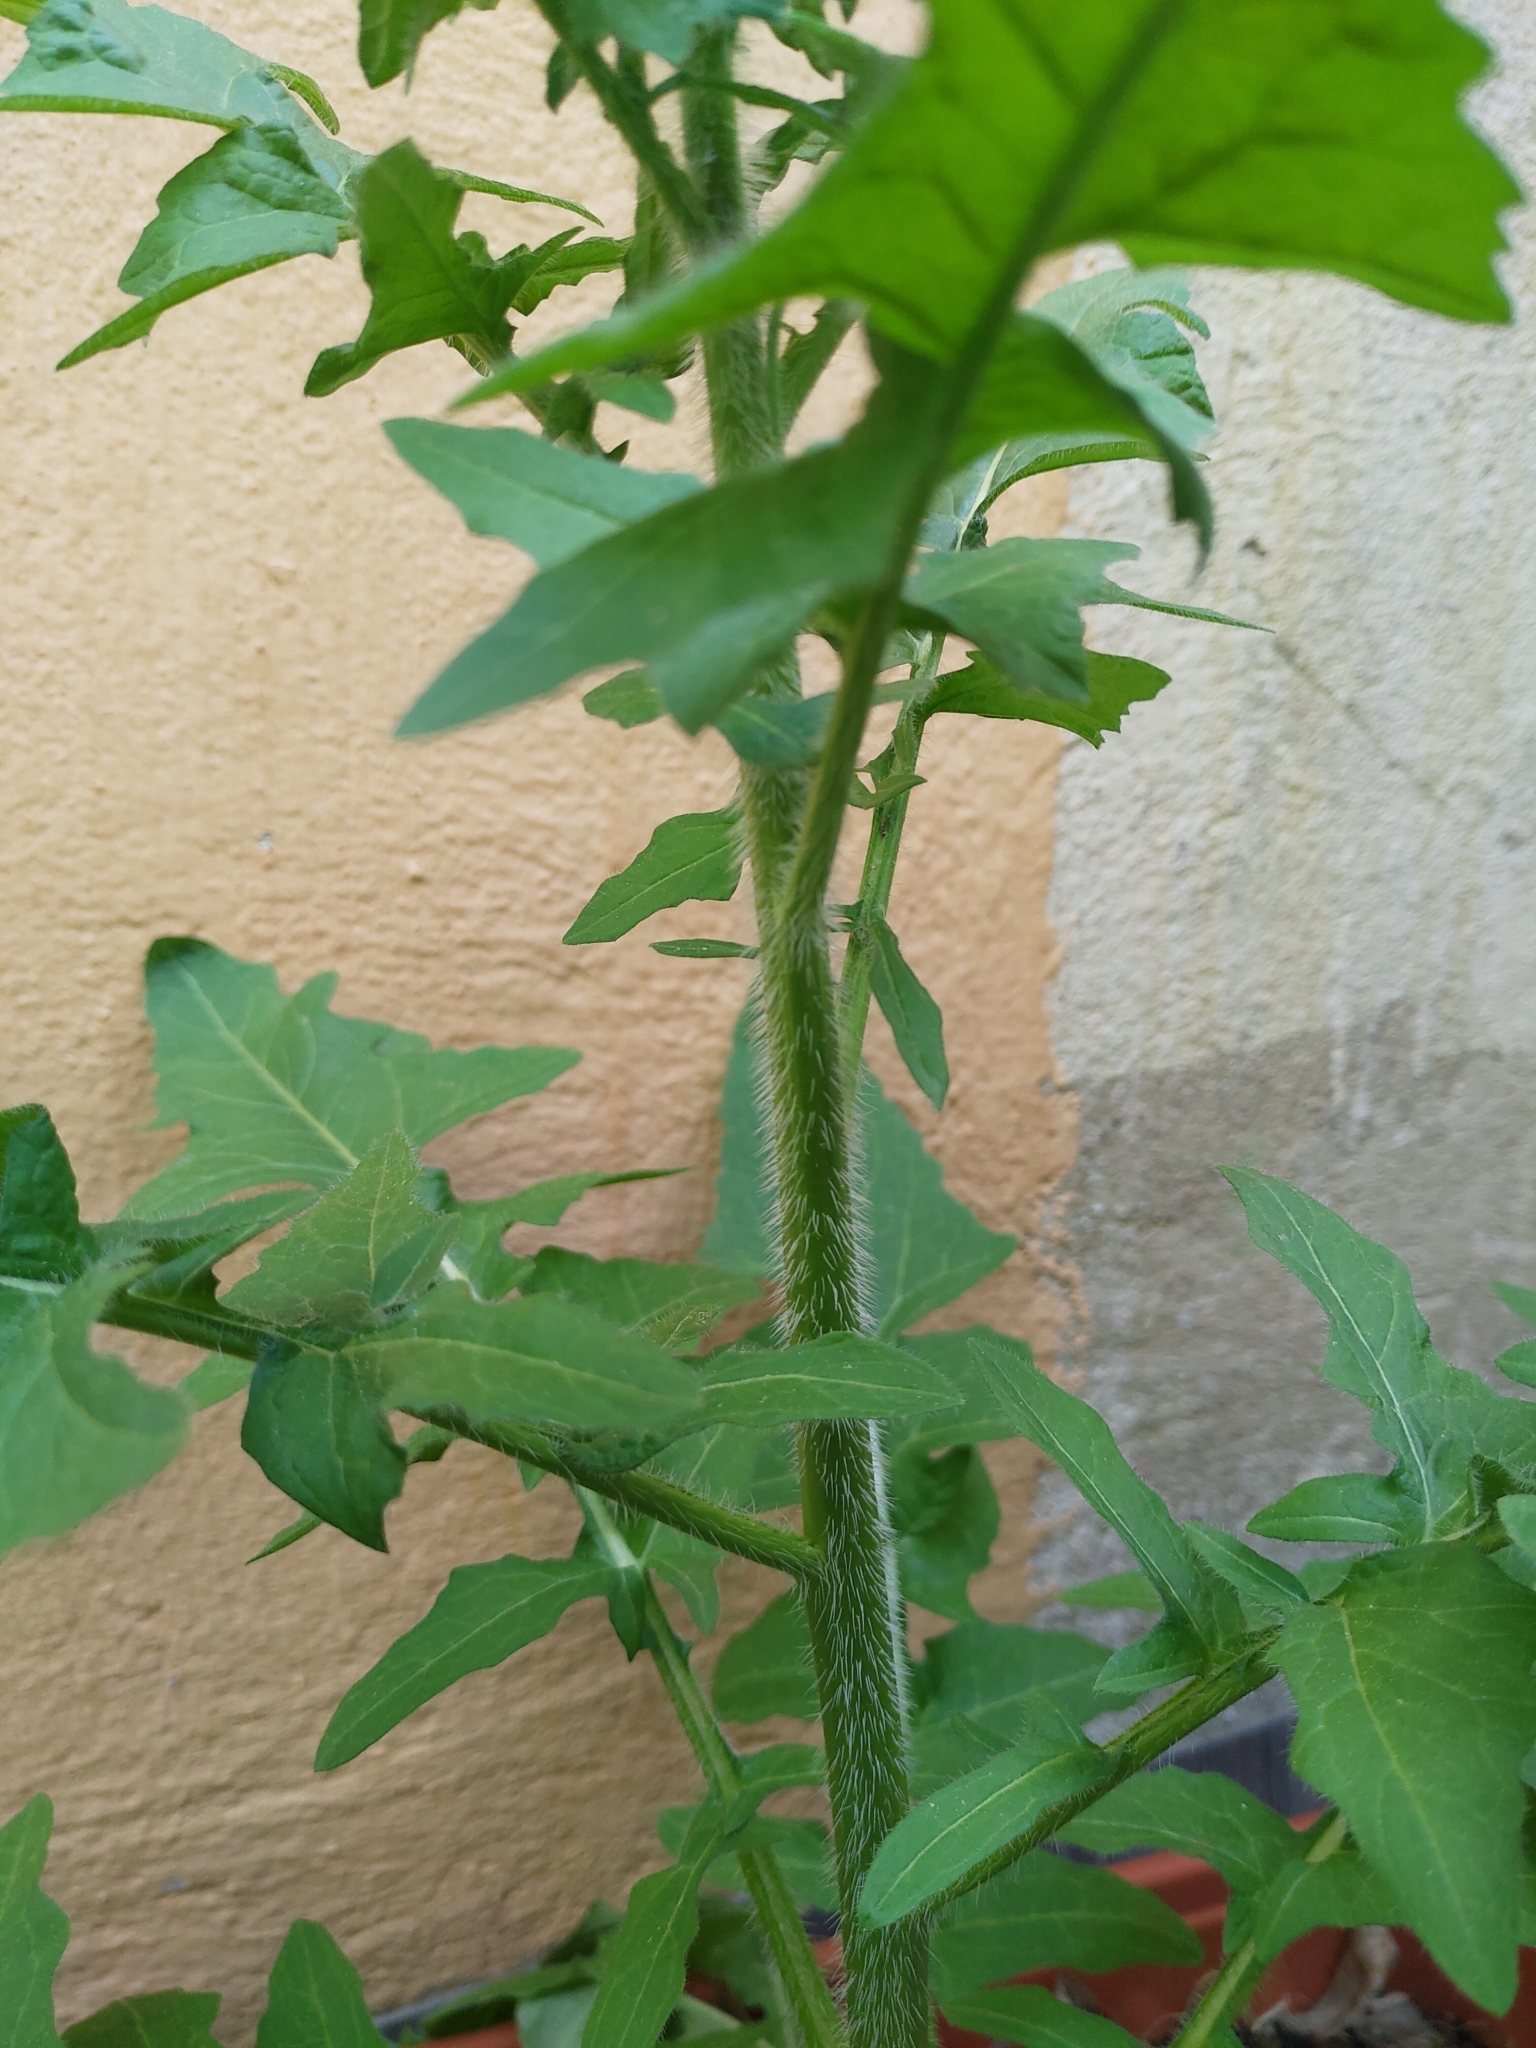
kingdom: Plantae
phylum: Tracheophyta
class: Magnoliopsida
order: Brassicales
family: Brassicaceae
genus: Sisymbrium
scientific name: Sisymbrium loeselii
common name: False london-rocket
